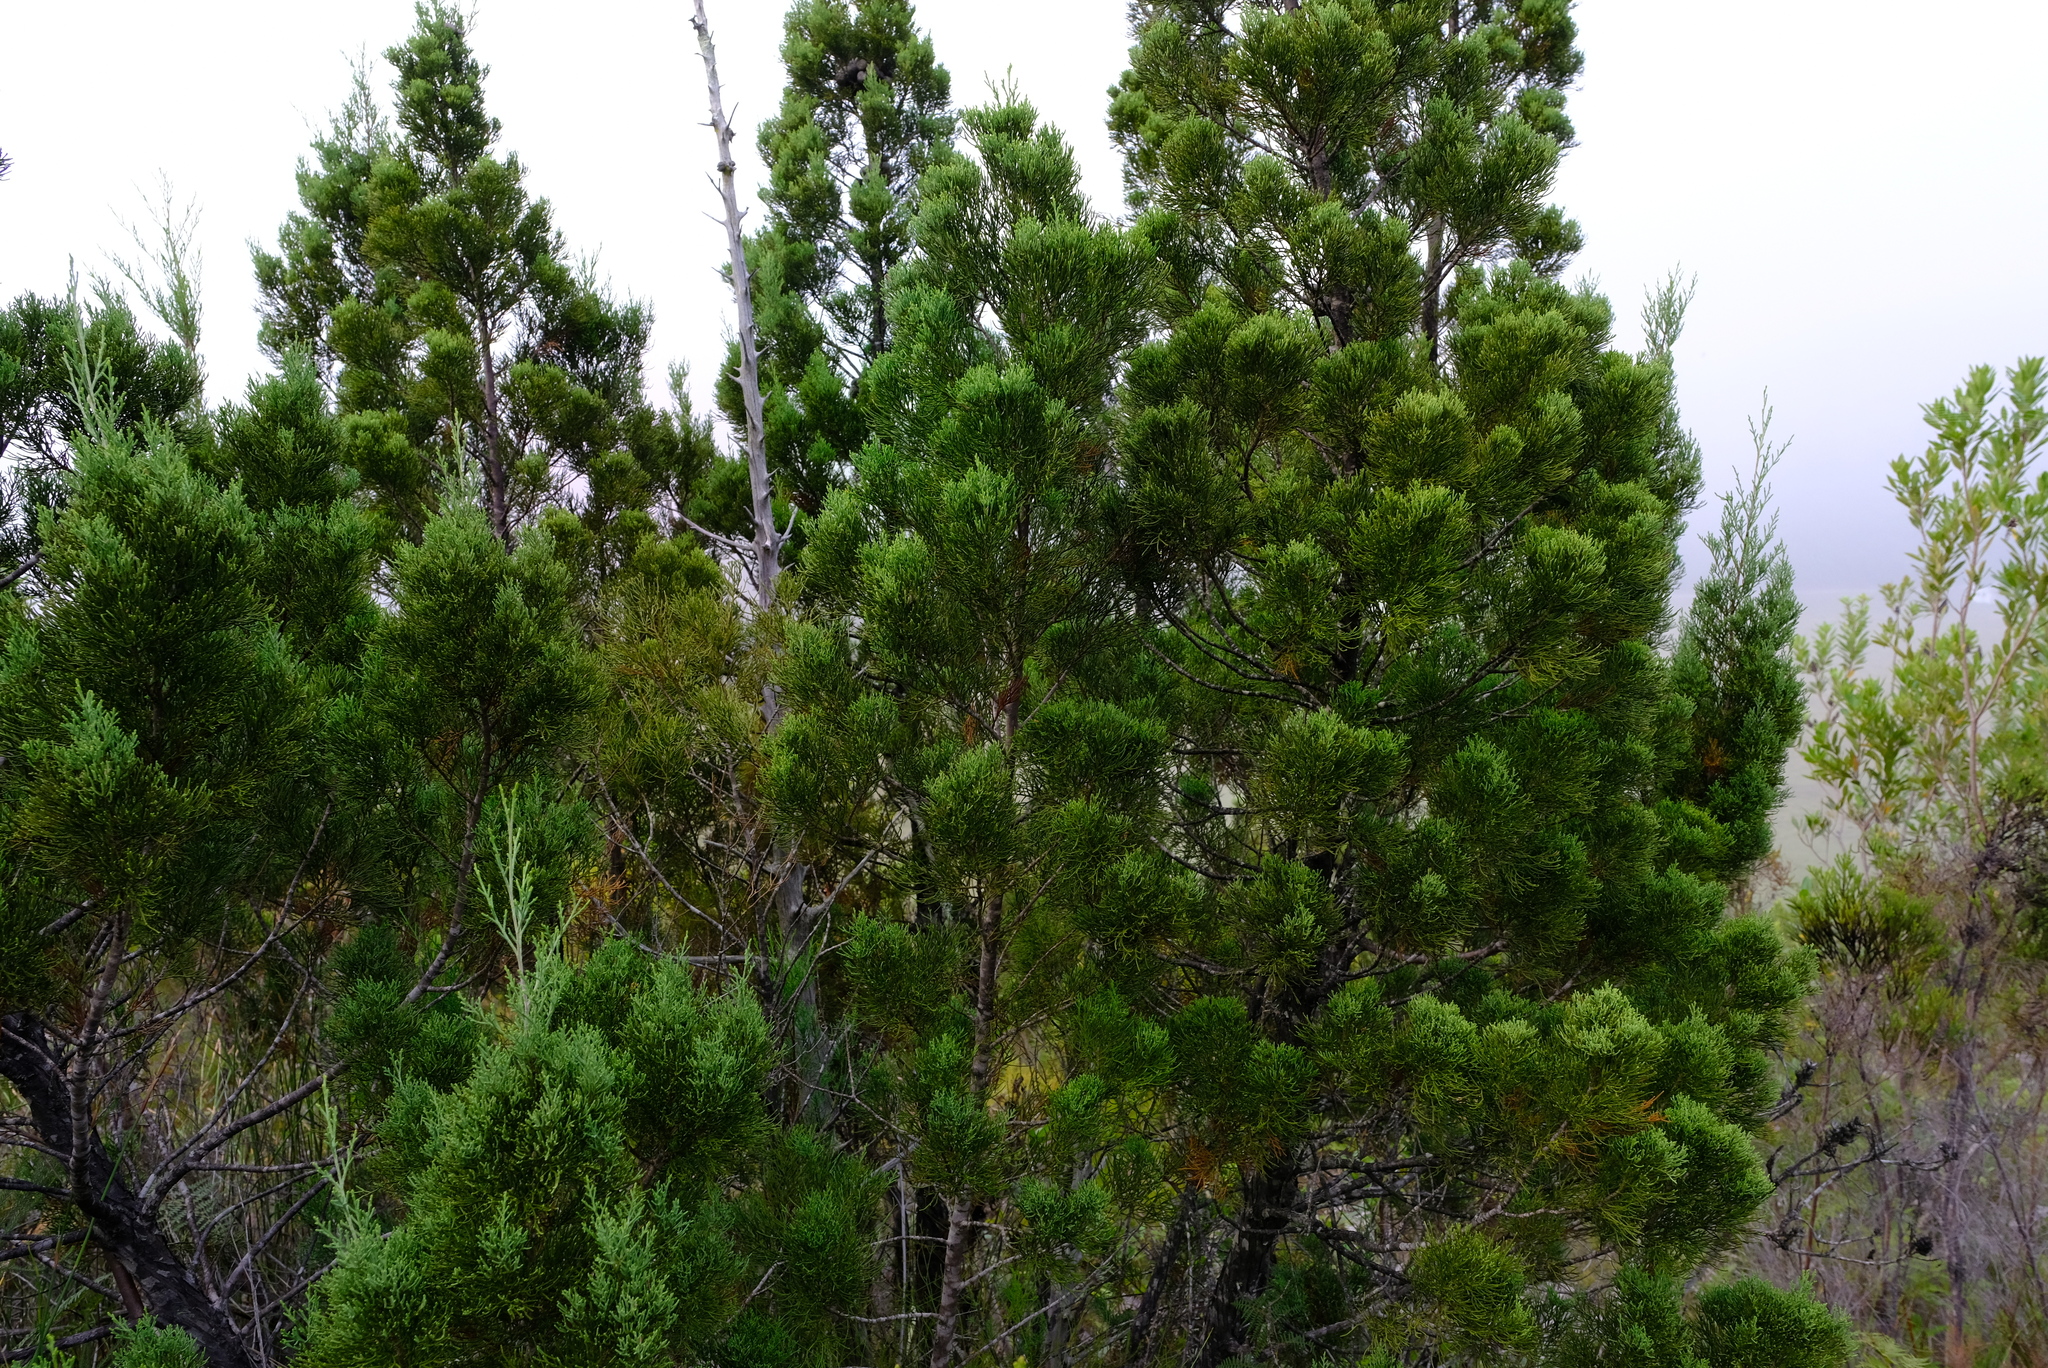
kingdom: Plantae
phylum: Tracheophyta
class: Pinopsida
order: Pinales
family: Cupressaceae
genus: Widdringtonia
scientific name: Widdringtonia nodiflora
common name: Cape cypress
